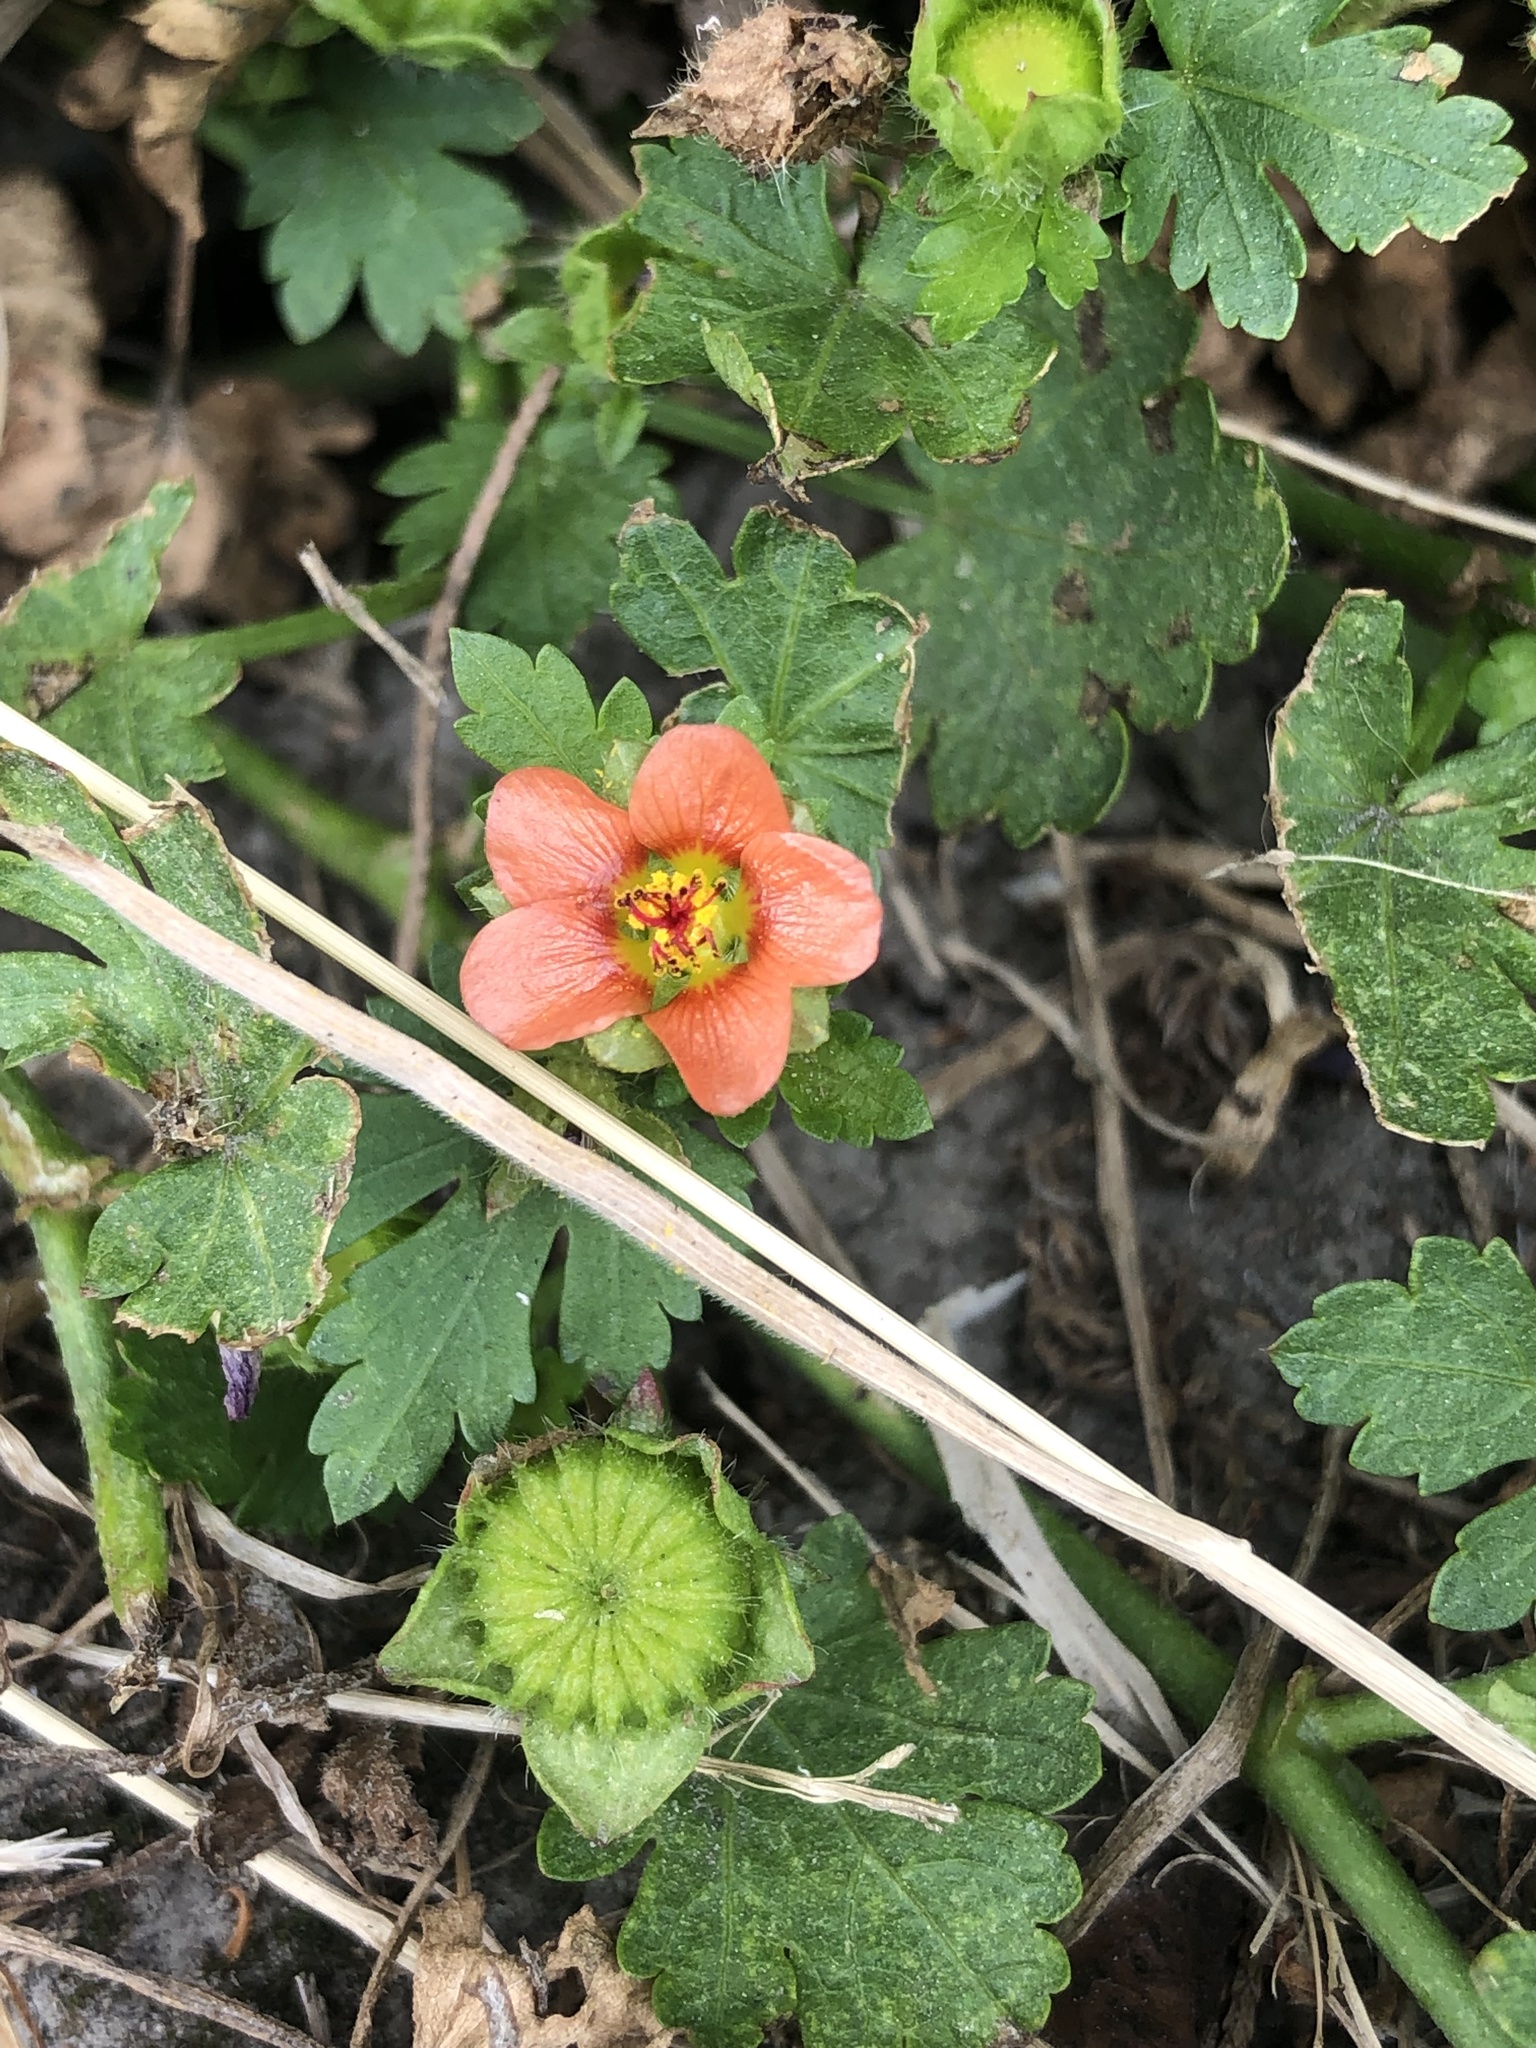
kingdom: Plantae
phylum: Tracheophyta
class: Magnoliopsida
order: Malvales
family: Malvaceae
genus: Modiola
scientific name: Modiola caroliniana
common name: Carolina bristlemallow
